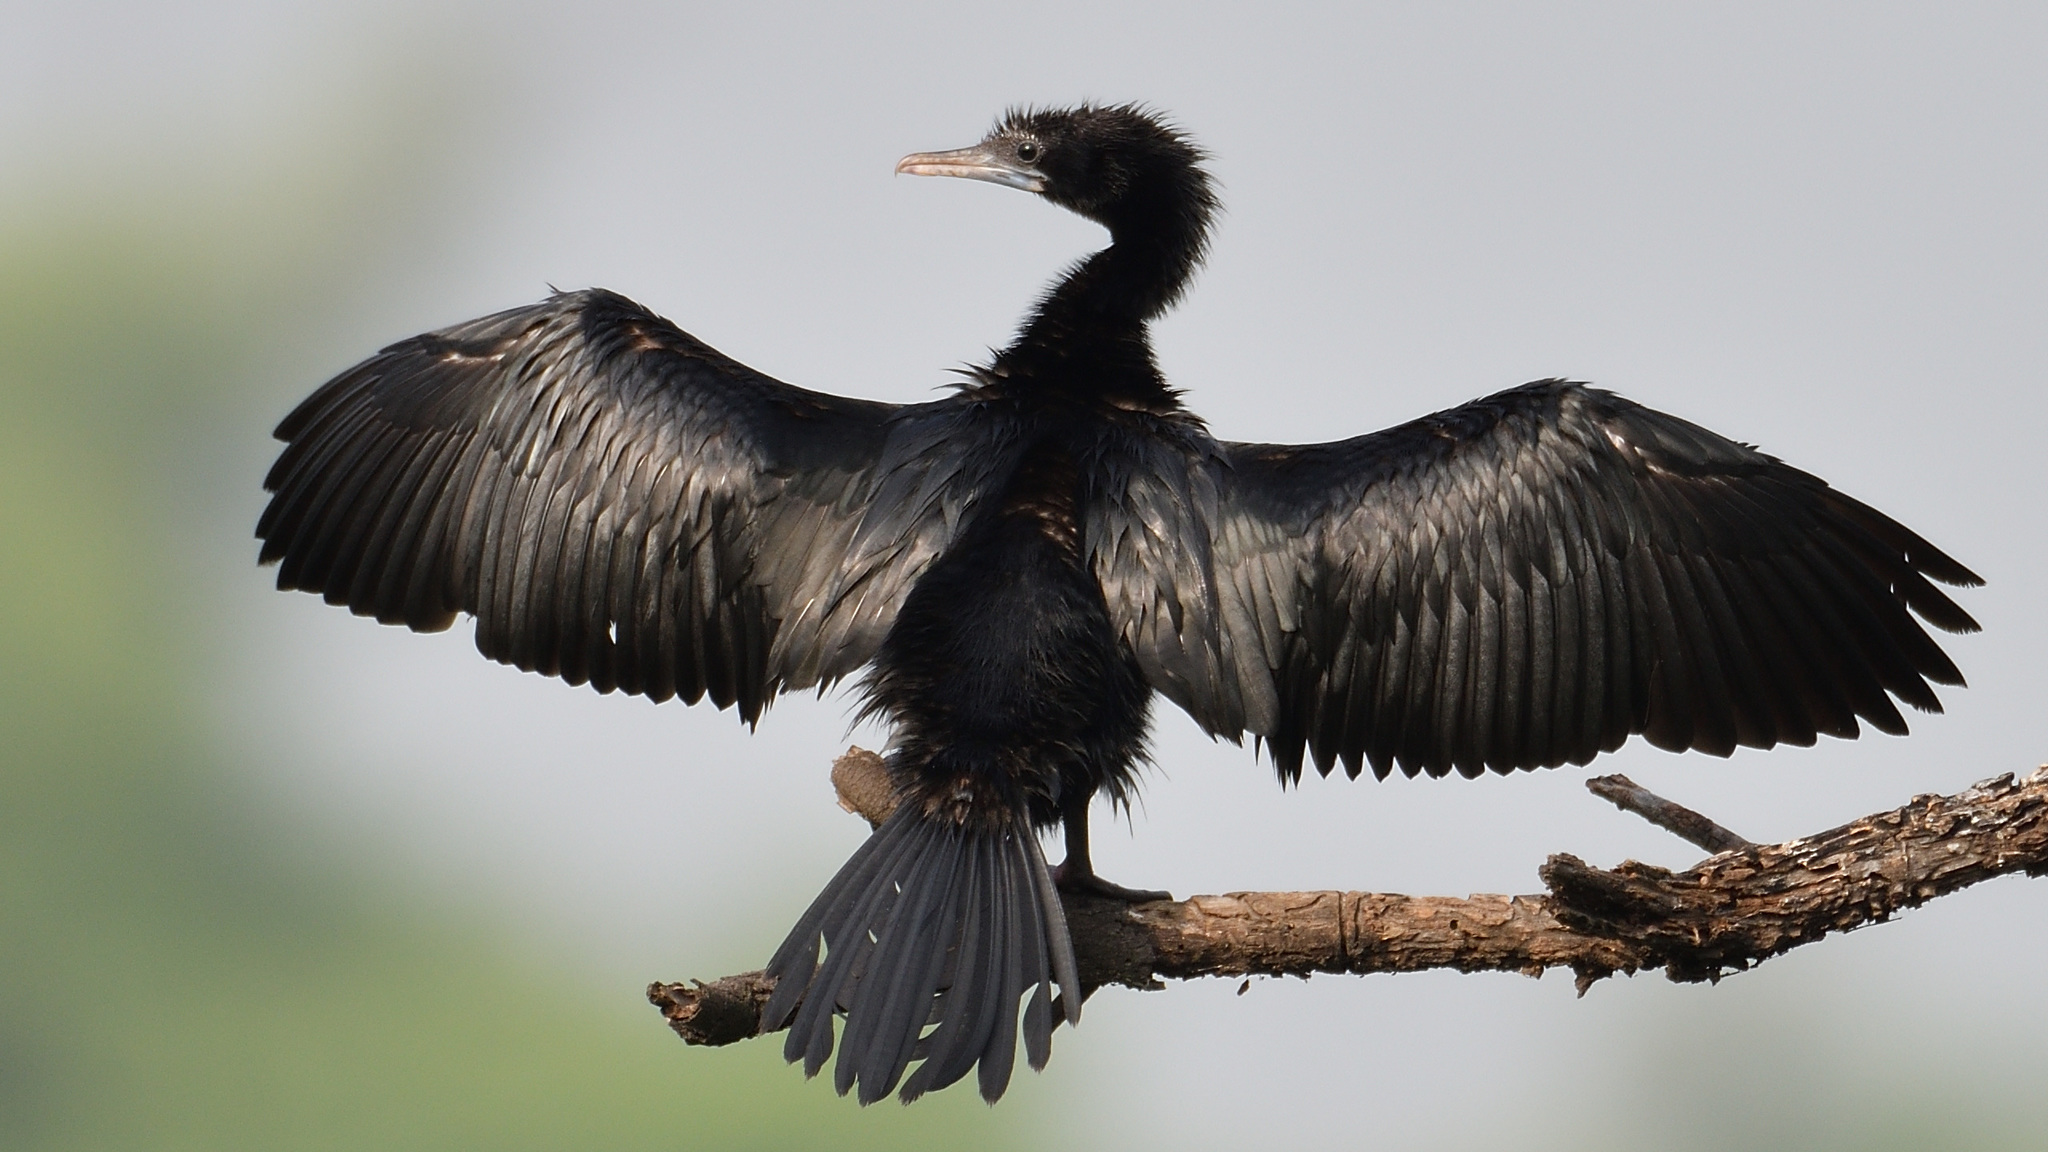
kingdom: Animalia
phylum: Chordata
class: Aves
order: Suliformes
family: Phalacrocoracidae
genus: Microcarbo
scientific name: Microcarbo niger
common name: Little cormorant
